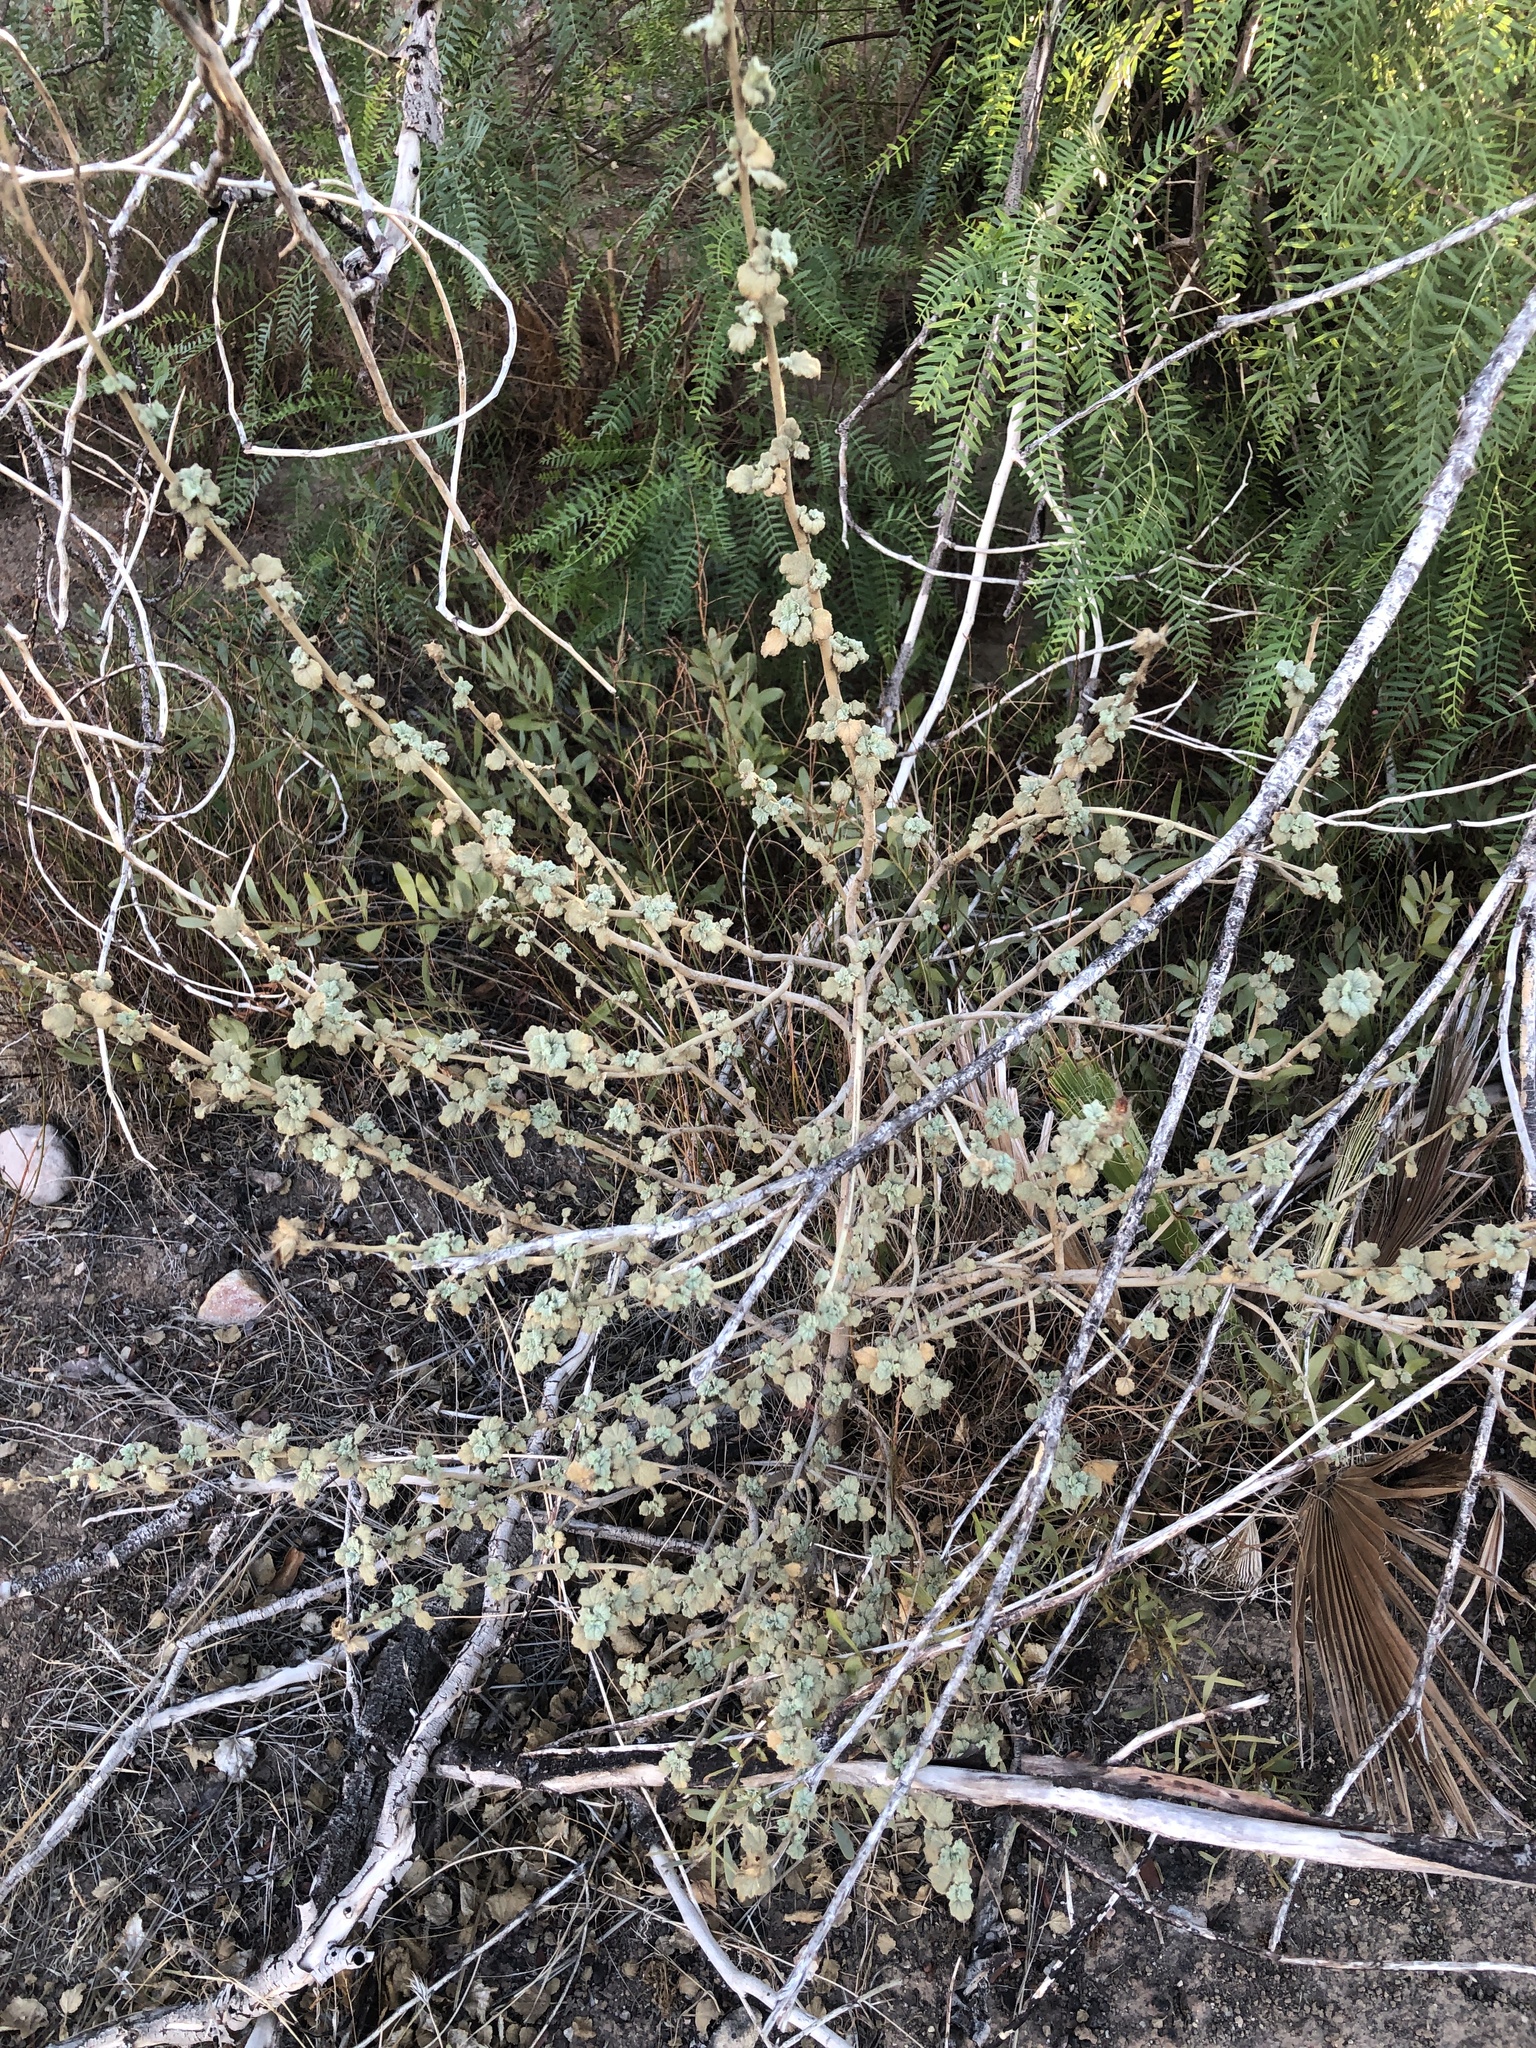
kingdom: Plantae
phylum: Tracheophyta
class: Magnoliopsida
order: Malvales
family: Malvaceae
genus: Malacothamnus
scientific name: Malacothamnus marrubioides
